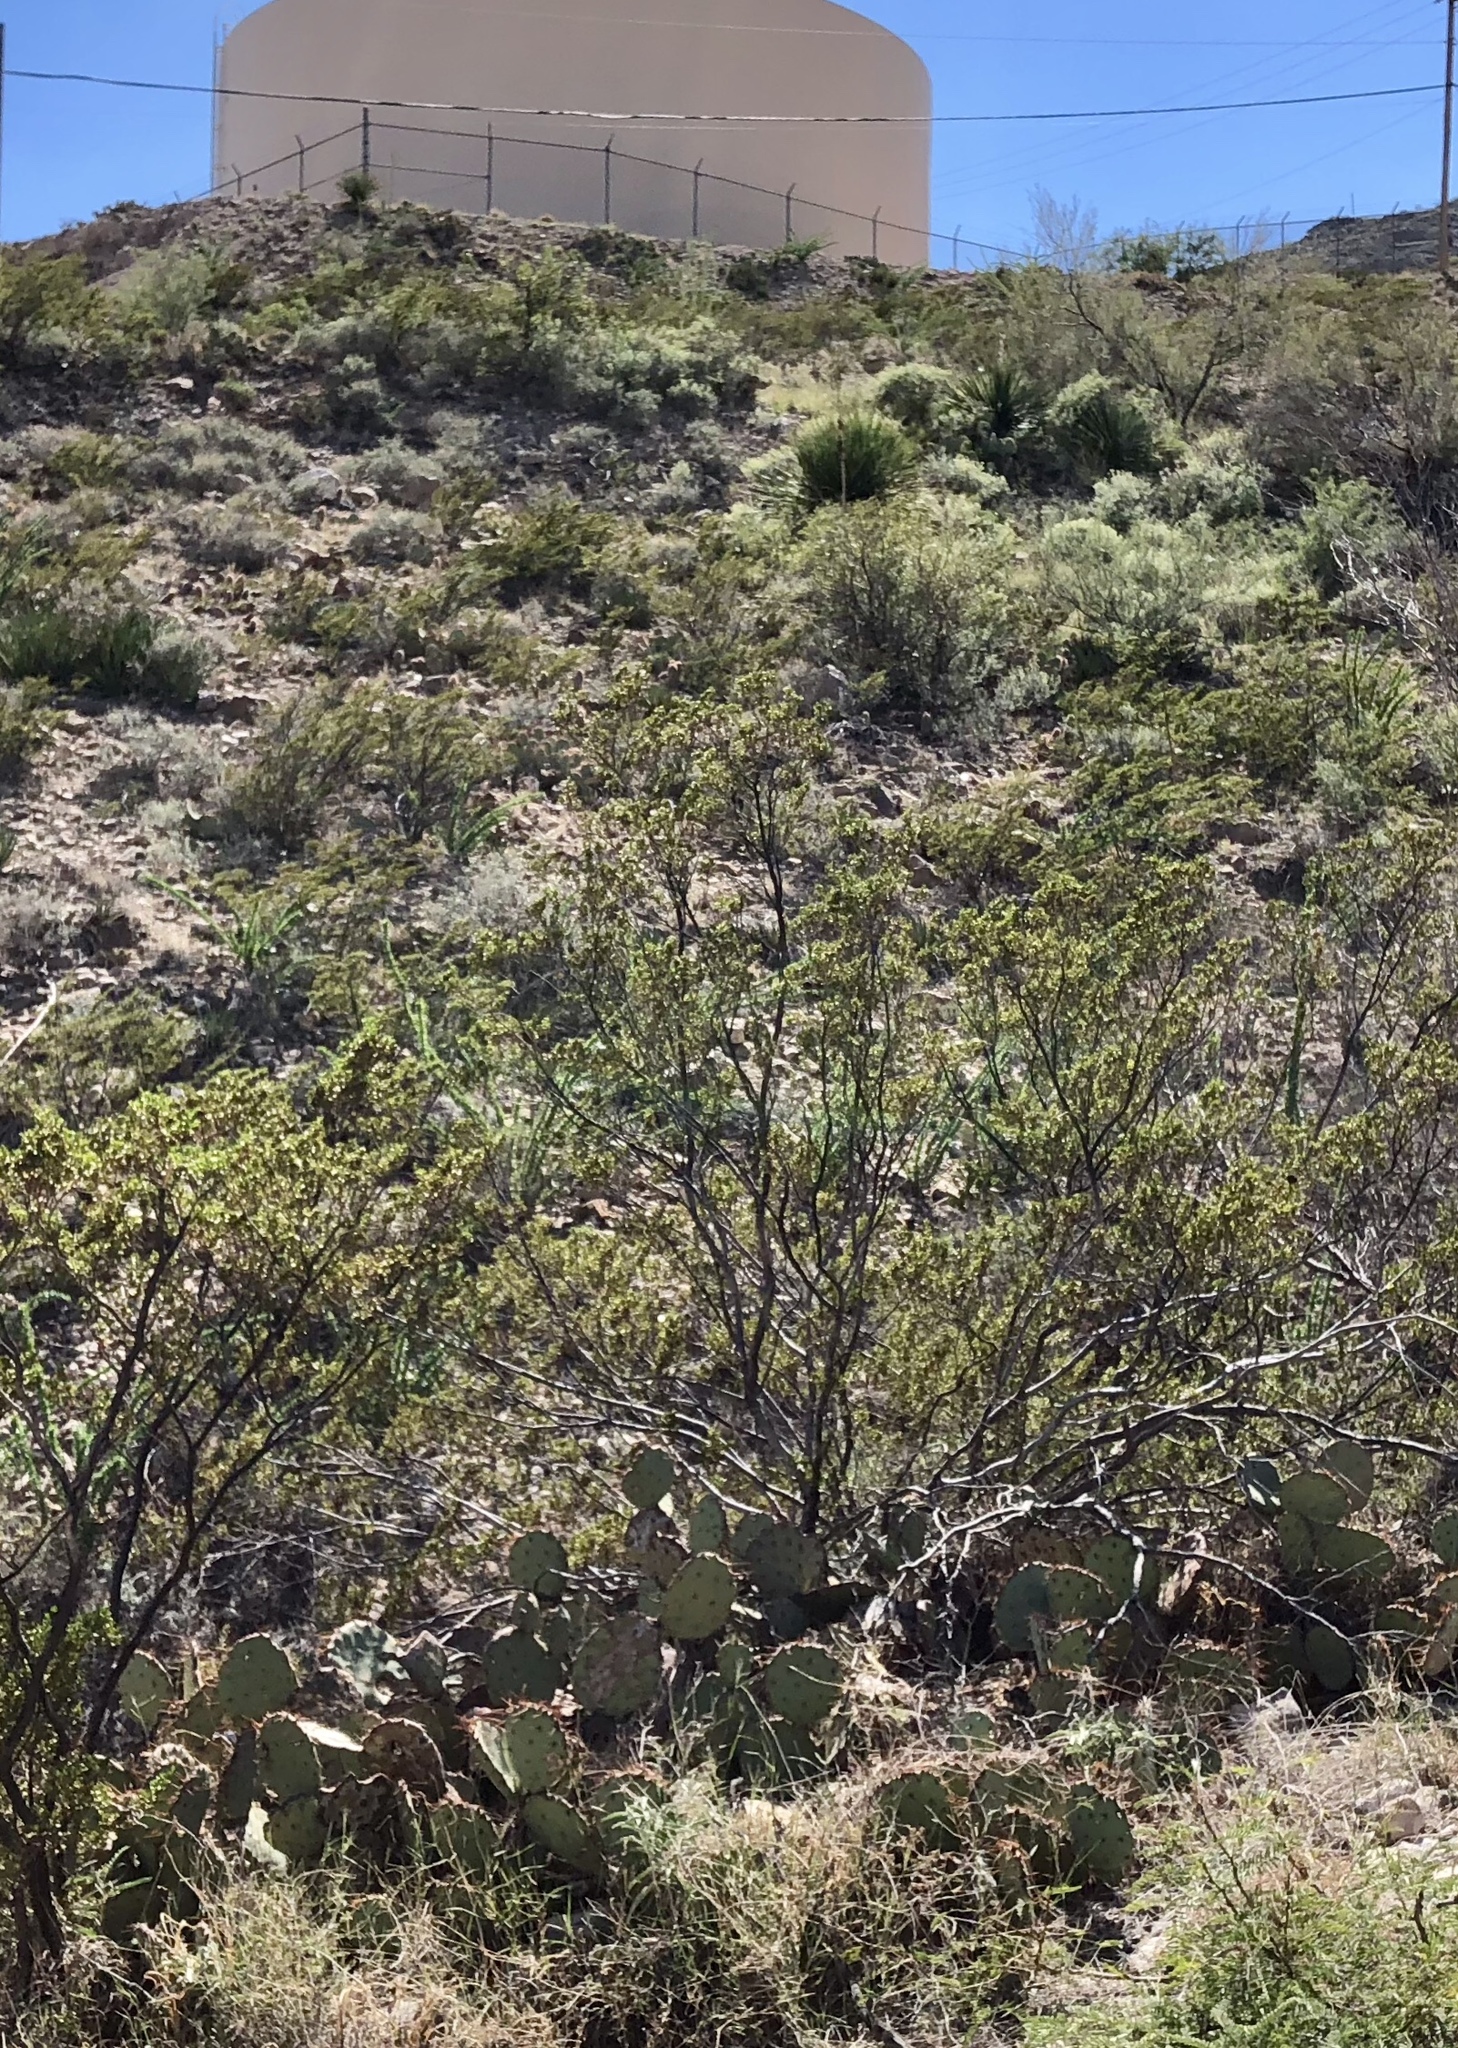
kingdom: Plantae
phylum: Tracheophyta
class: Magnoliopsida
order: Zygophyllales
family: Zygophyllaceae
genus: Larrea
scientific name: Larrea tridentata
